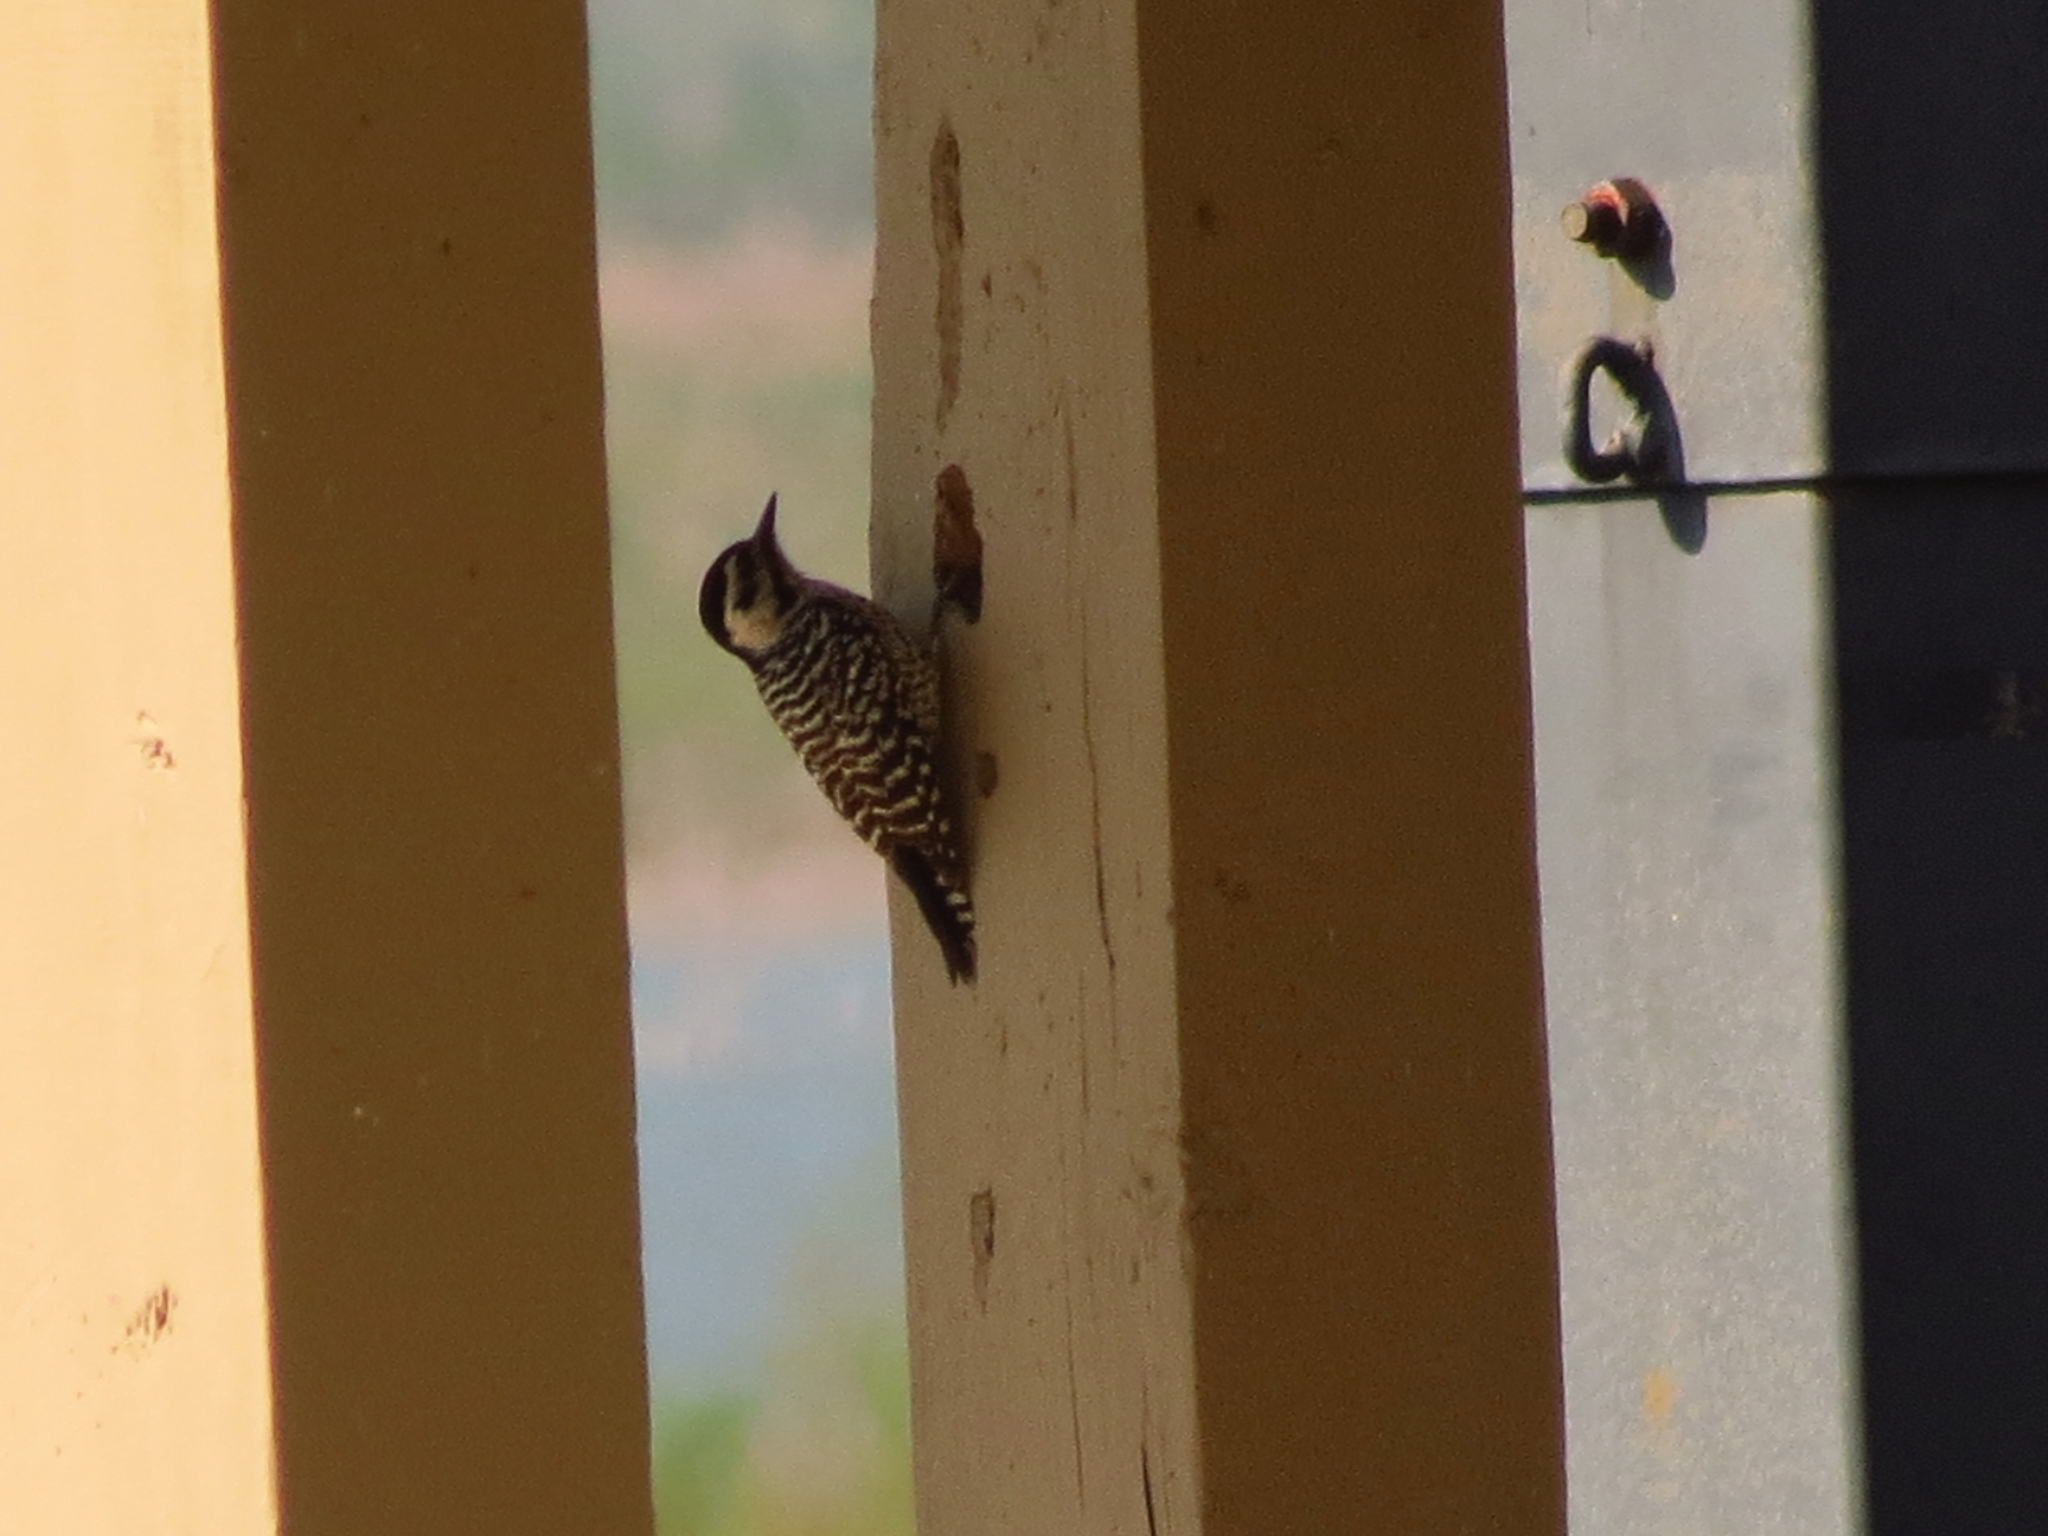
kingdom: Animalia
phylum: Chordata
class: Aves
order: Piciformes
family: Picidae
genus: Dryobates
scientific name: Dryobates scalaris
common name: Ladder-backed woodpecker
